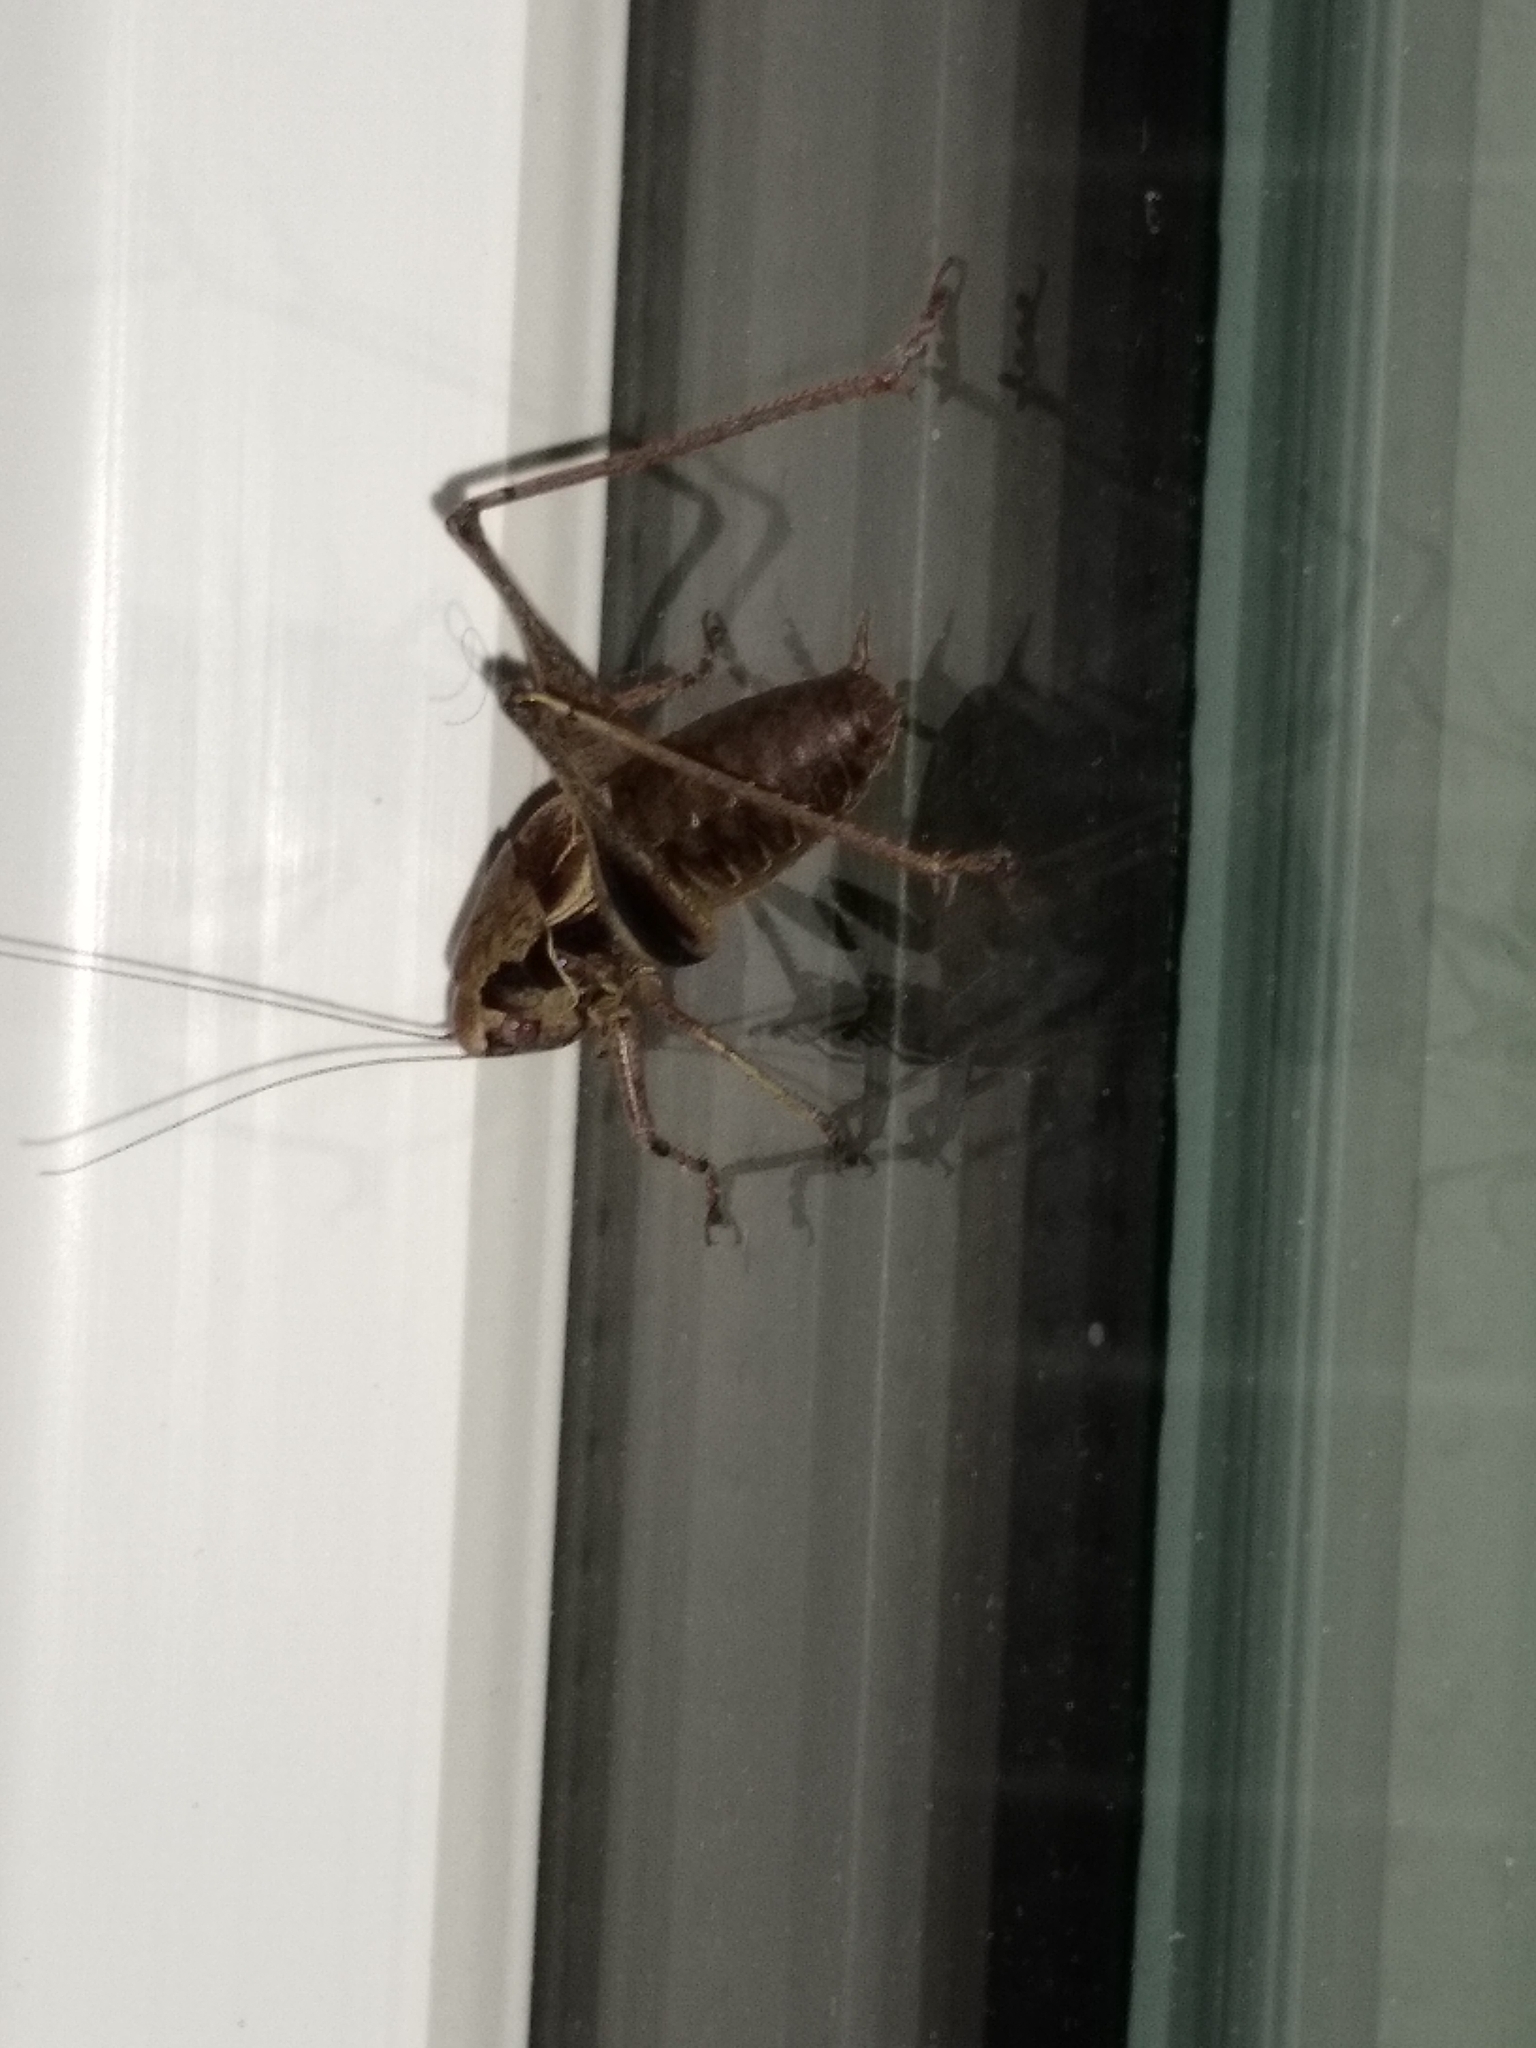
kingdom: Animalia
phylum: Arthropoda
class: Insecta
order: Orthoptera
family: Tettigoniidae
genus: Pholidoptera
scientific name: Pholidoptera griseoaptera
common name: Dark bush-cricket
